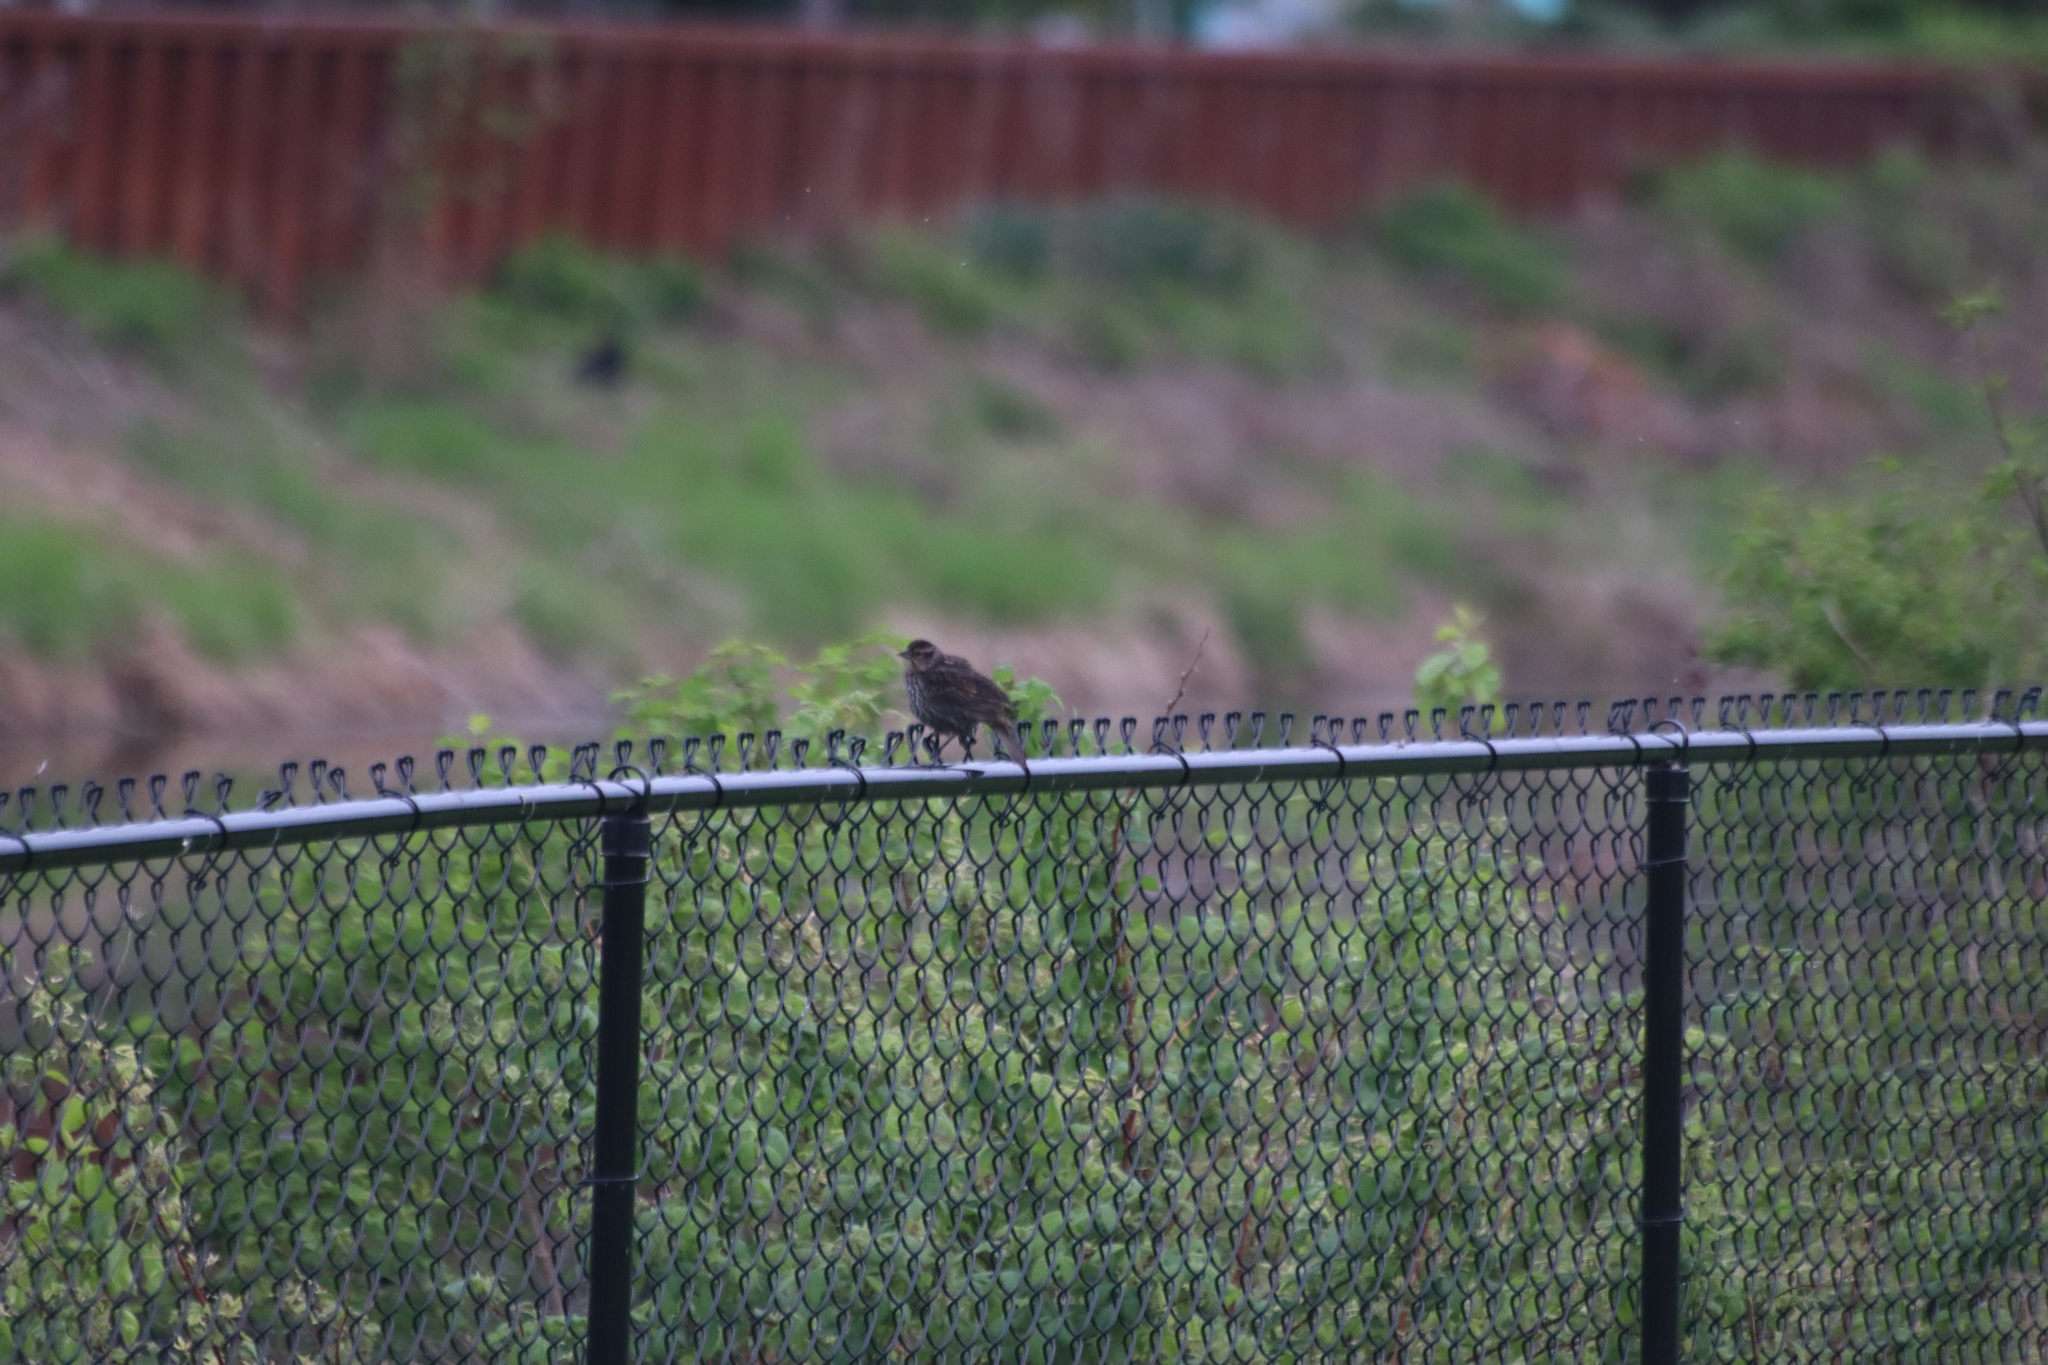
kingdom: Animalia
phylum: Chordata
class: Aves
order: Passeriformes
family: Icteridae
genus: Agelaius
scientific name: Agelaius phoeniceus
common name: Red-winged blackbird
